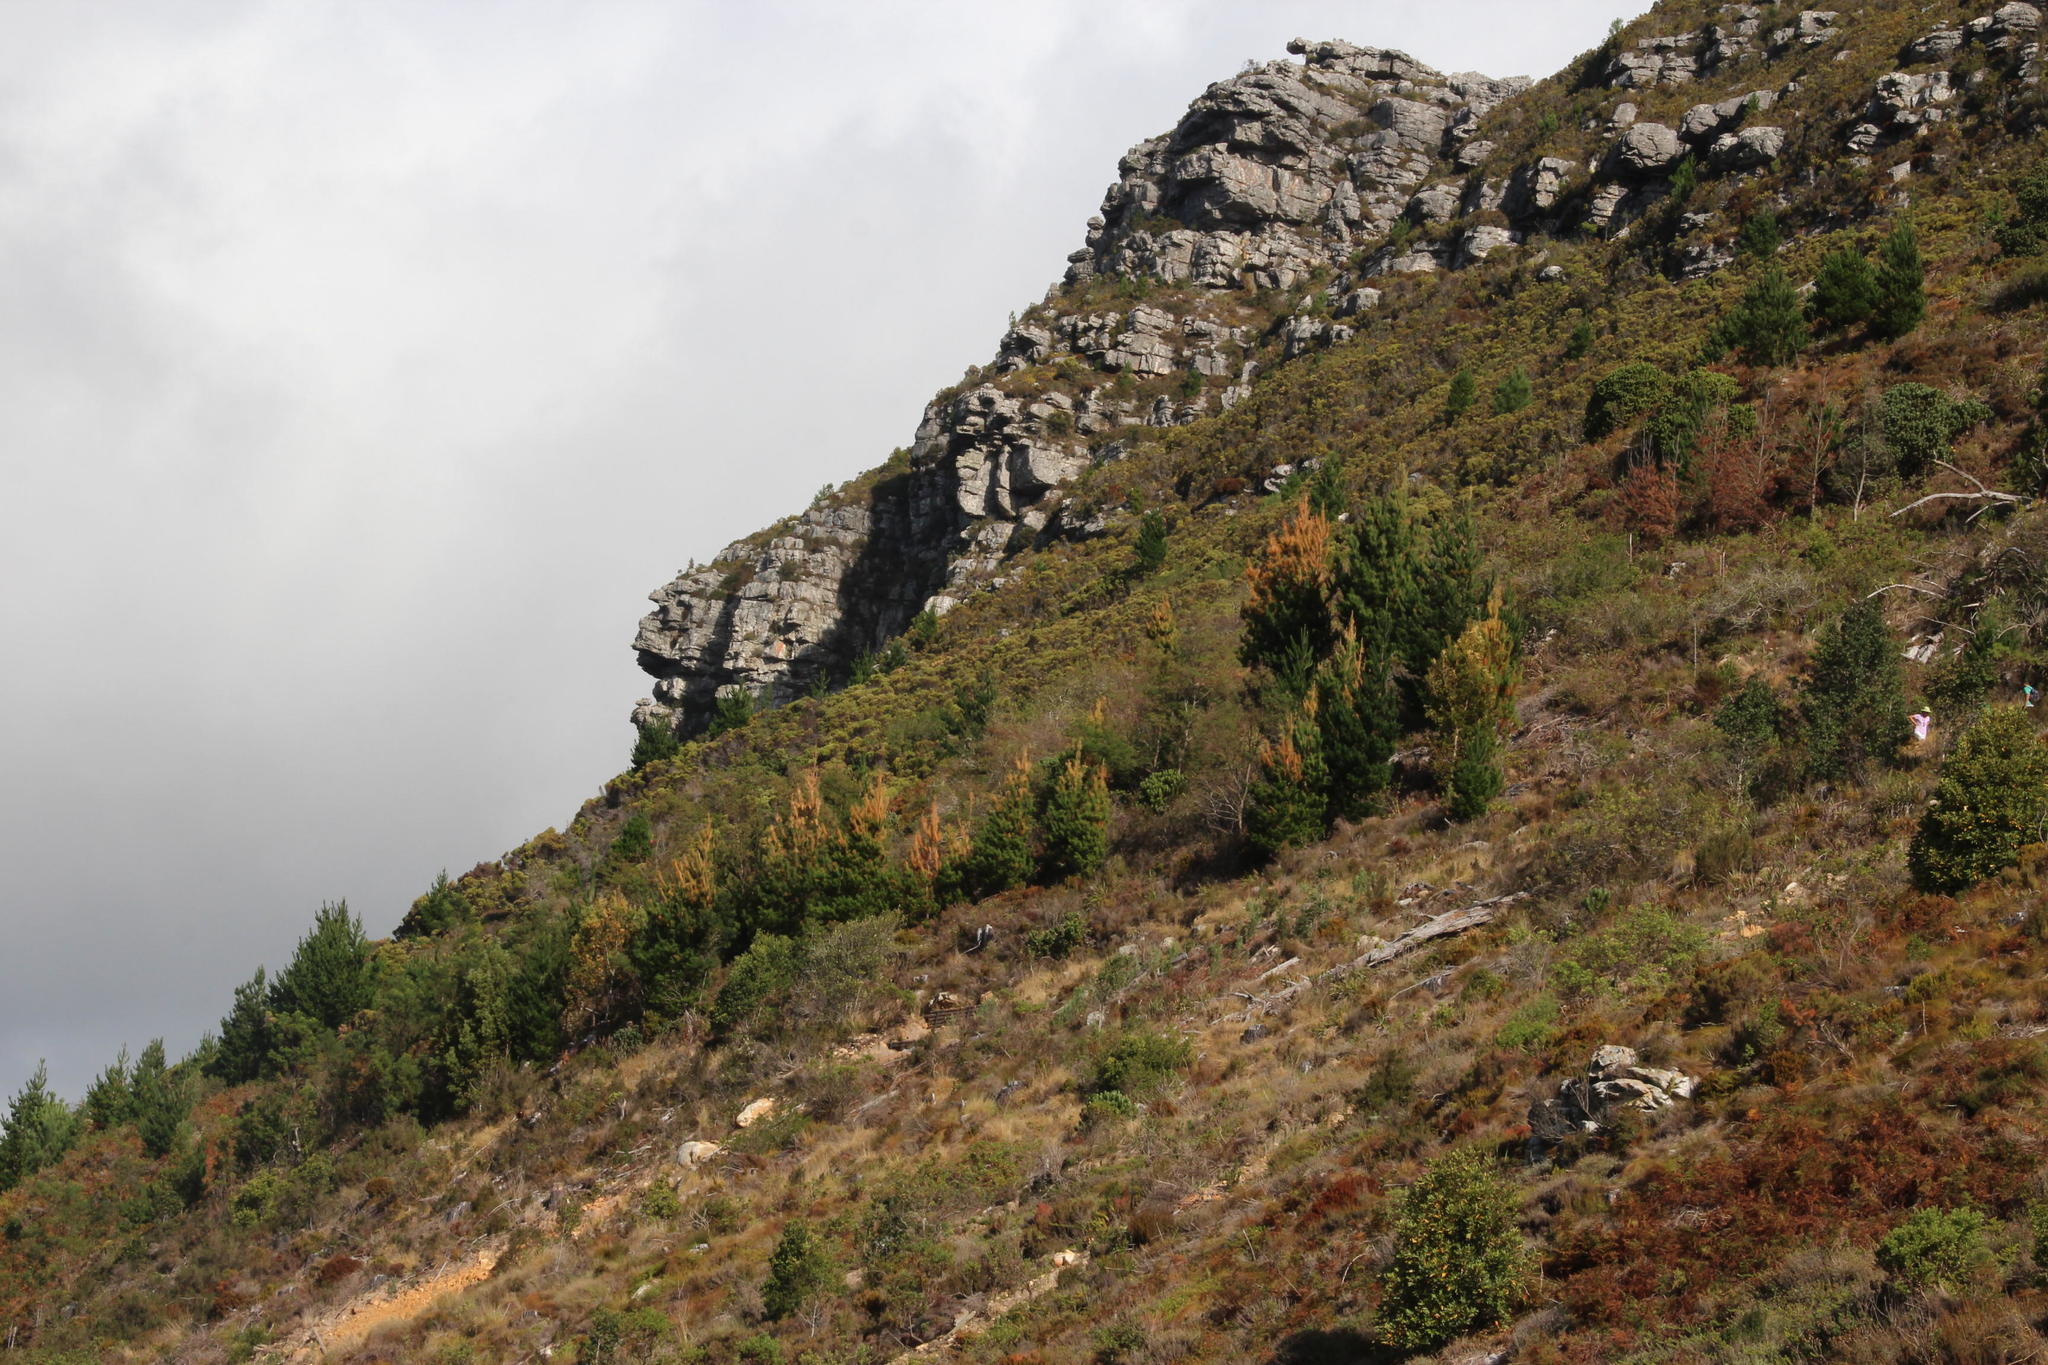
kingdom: Plantae
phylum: Tracheophyta
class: Pinopsida
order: Pinales
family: Pinaceae
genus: Pinus
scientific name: Pinus radiata
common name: Monterey pine
